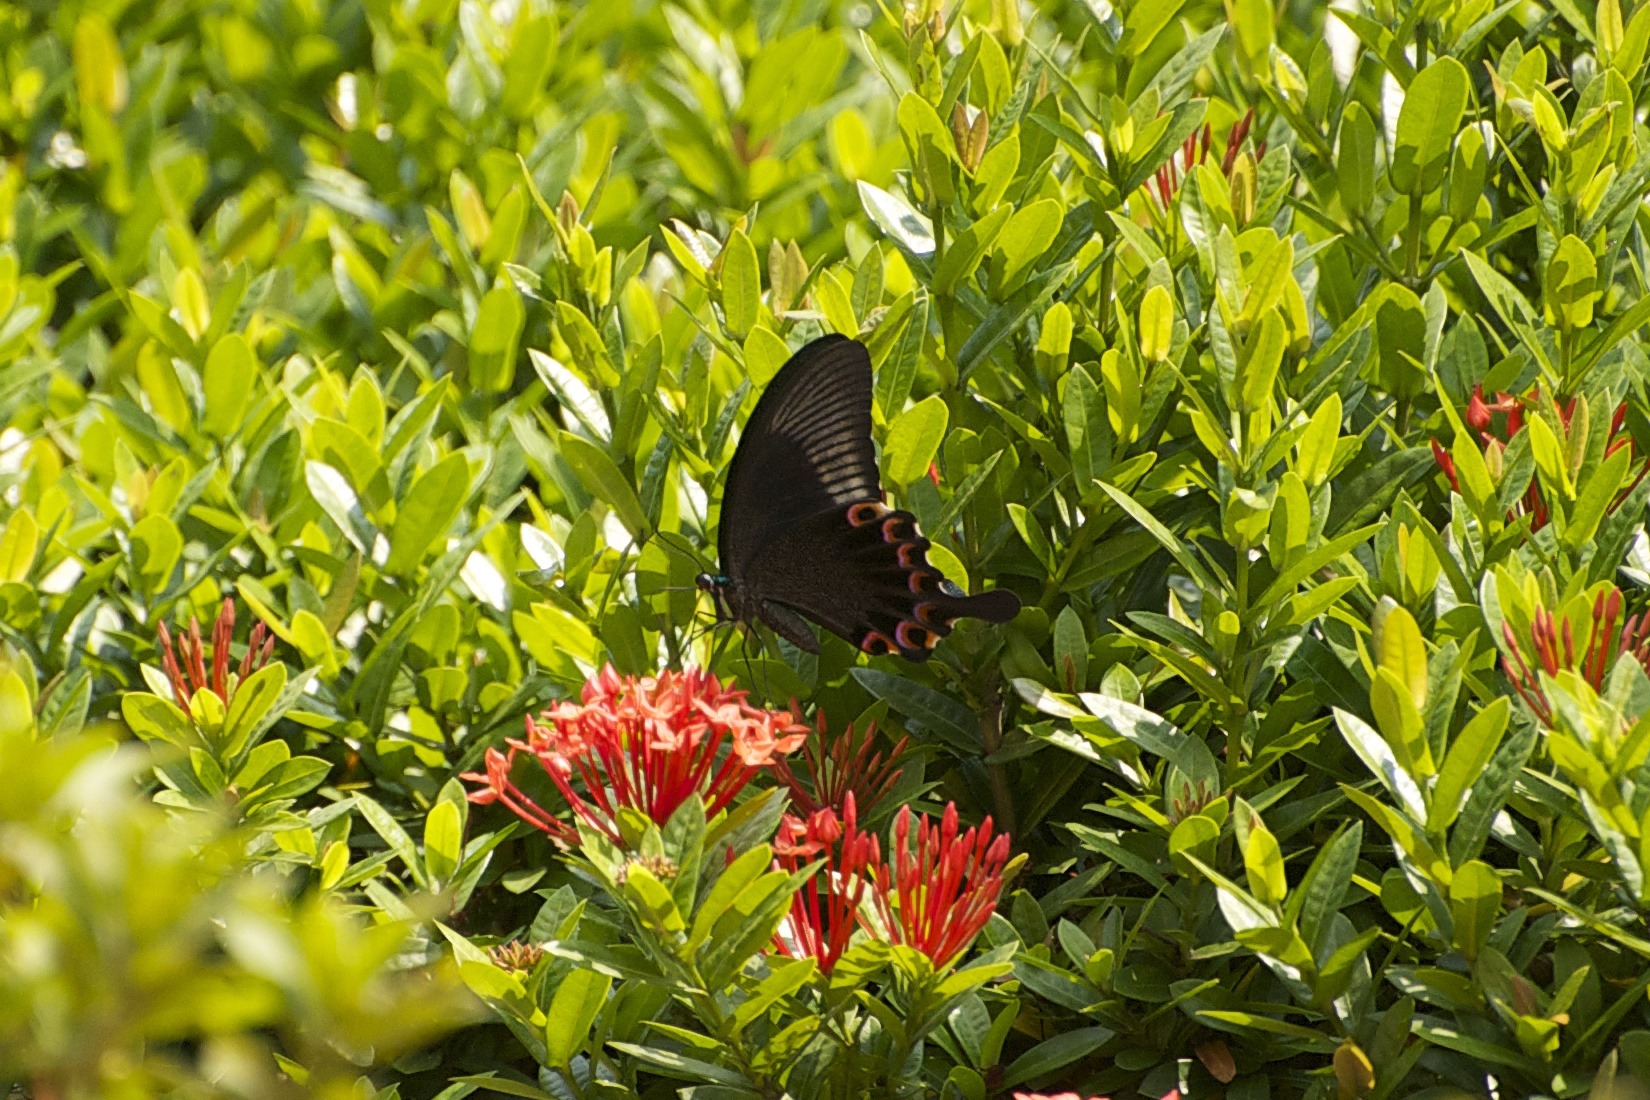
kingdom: Animalia
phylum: Arthropoda
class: Insecta
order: Lepidoptera
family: Papilionidae
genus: Papilio
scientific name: Papilio paris
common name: Paris peacock
